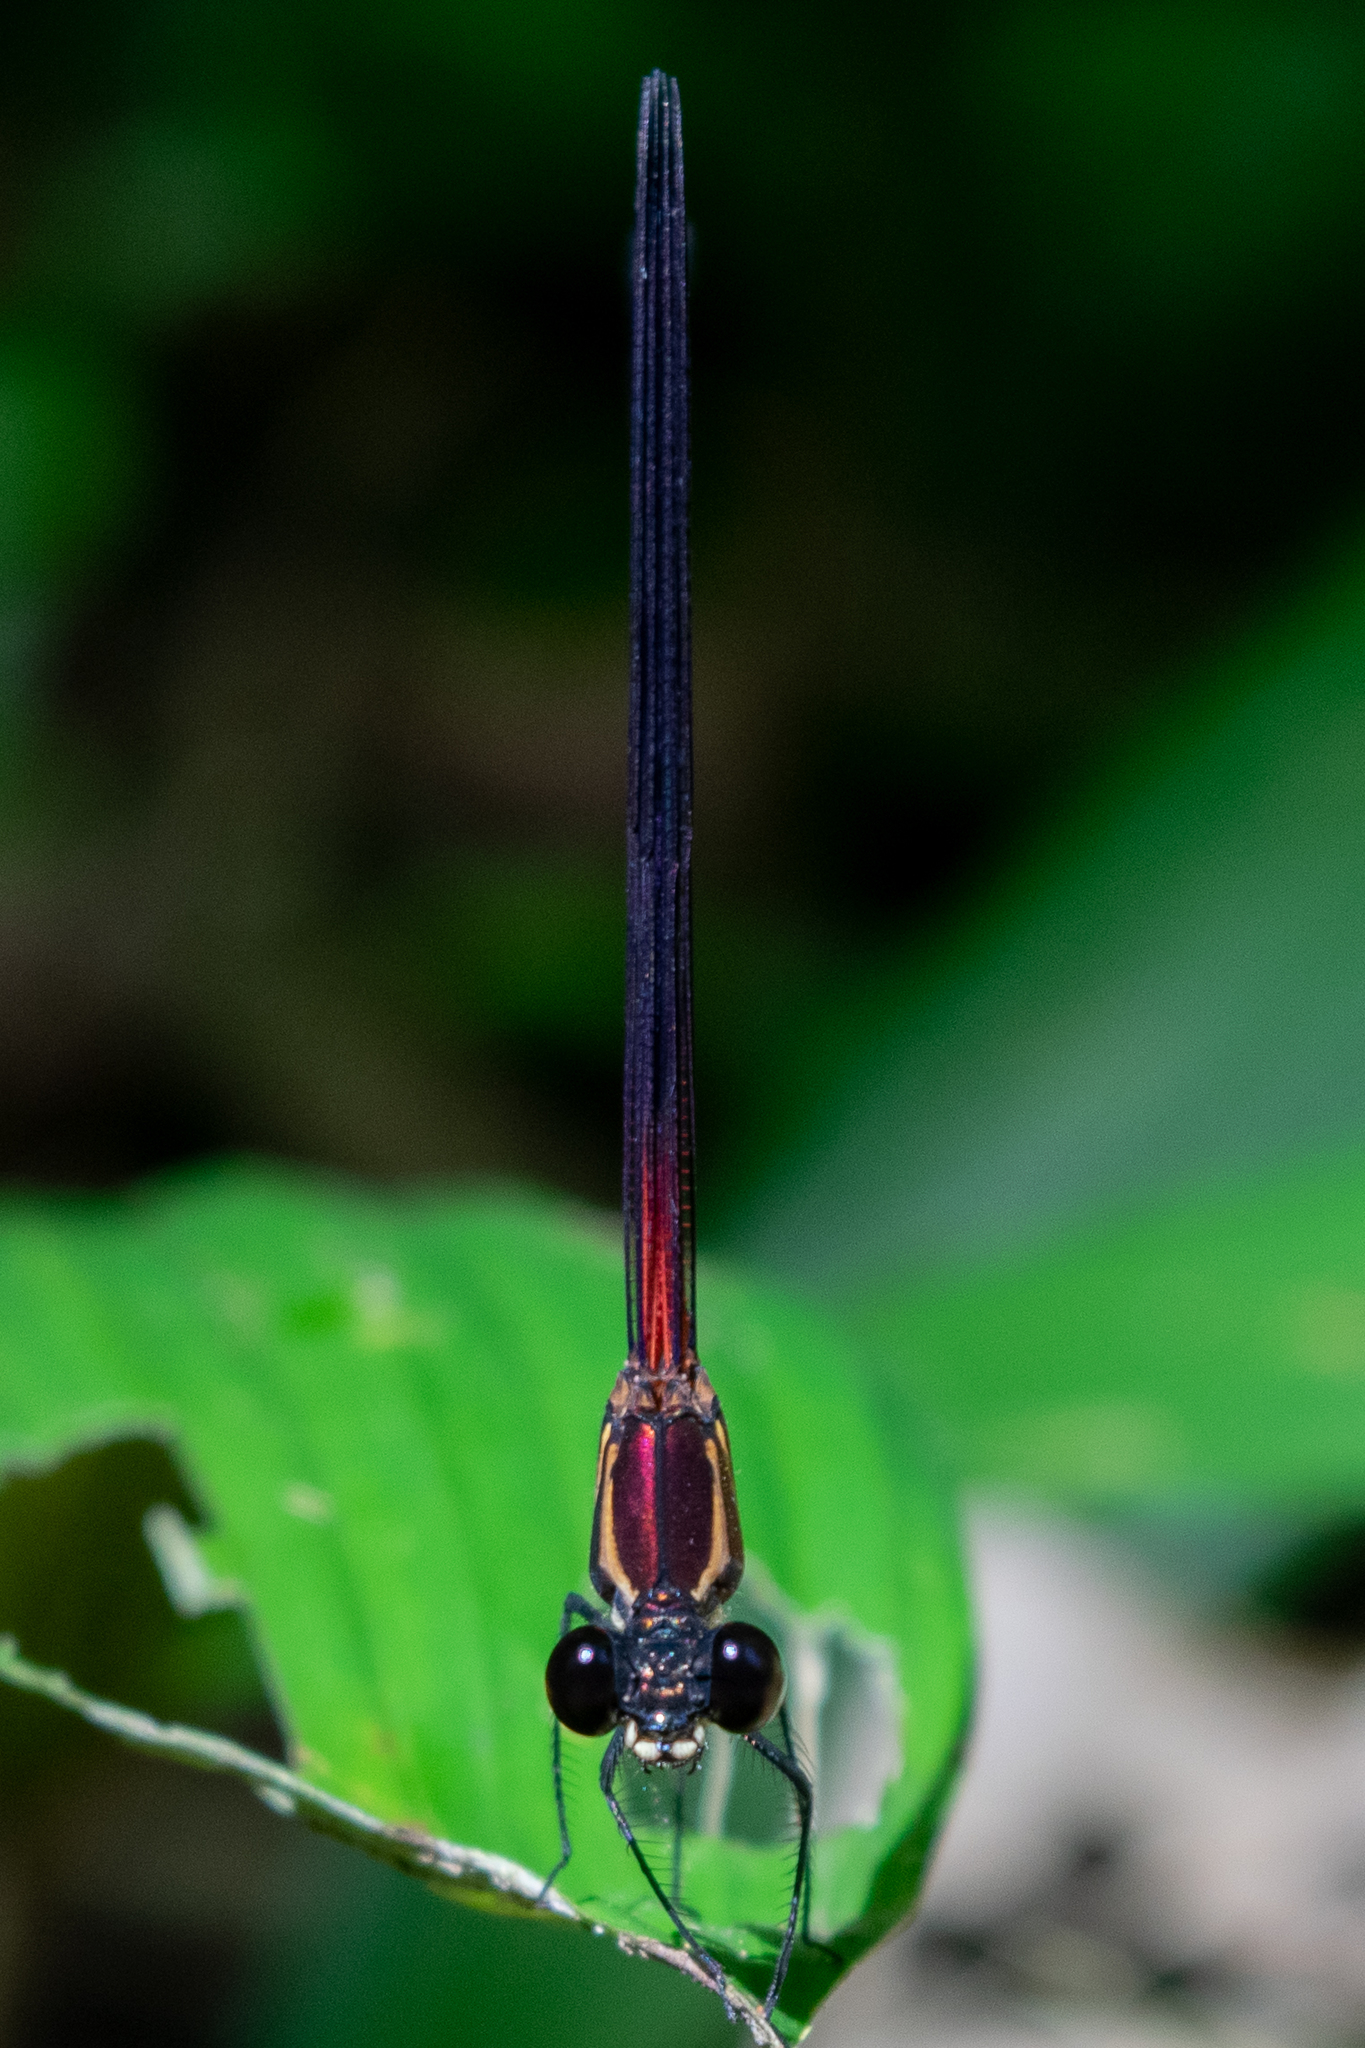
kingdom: Animalia
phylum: Arthropoda
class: Insecta
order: Odonata
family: Calopterygidae
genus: Hetaerina
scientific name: Hetaerina fuscoguttata
